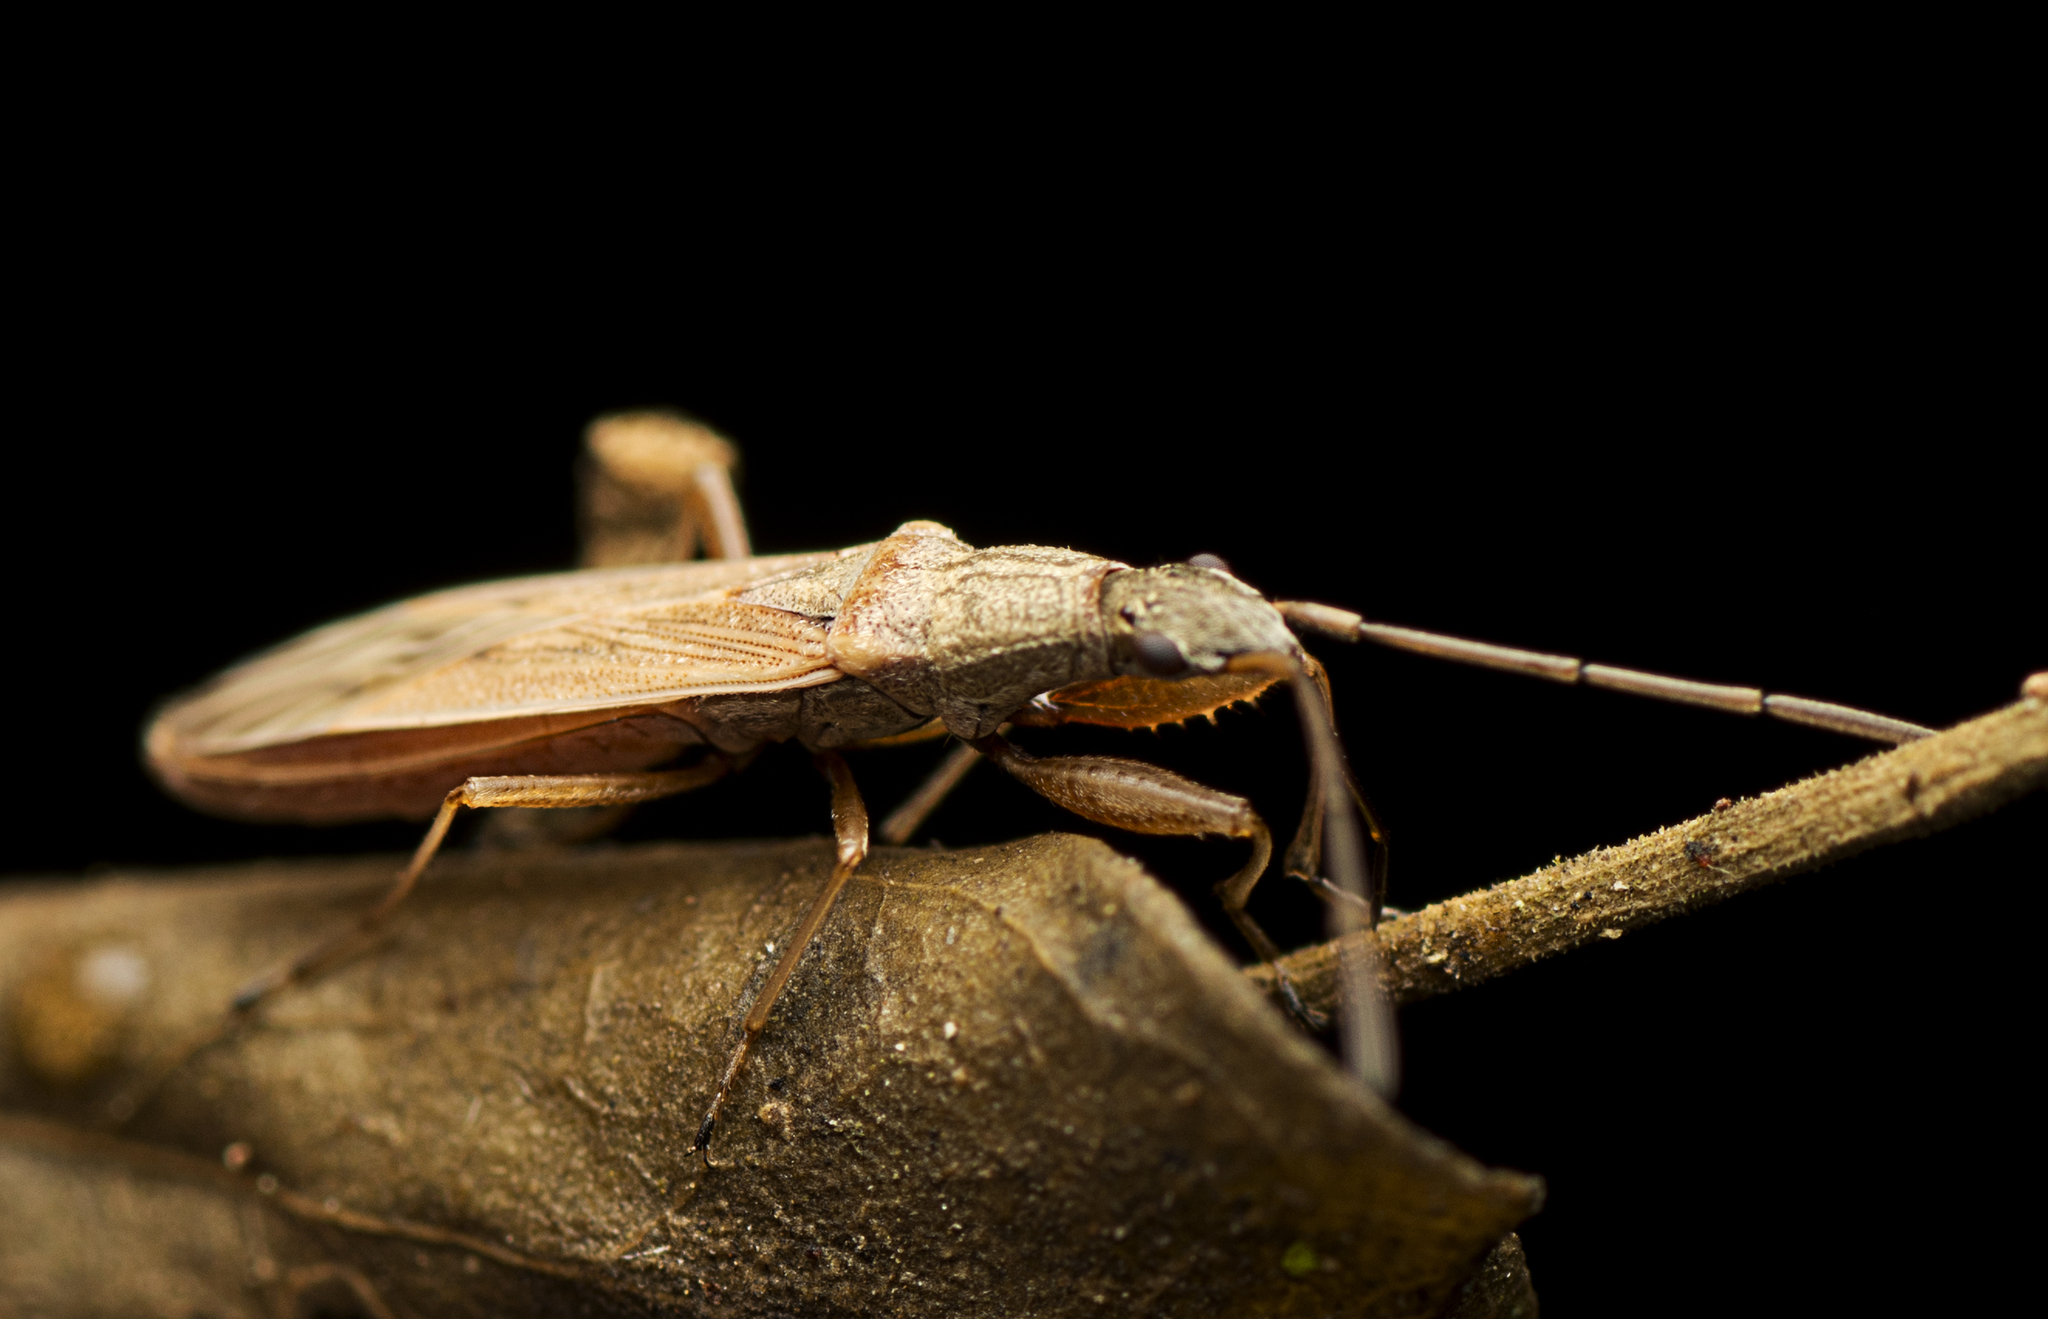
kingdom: Animalia
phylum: Arthropoda
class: Insecta
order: Hemiptera
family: Rhyparochromidae
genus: Paromius
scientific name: Paromius gracilis
